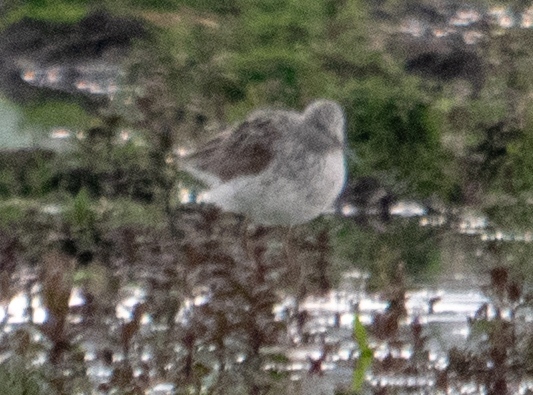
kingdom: Animalia
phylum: Chordata
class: Aves
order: Charadriiformes
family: Scolopacidae
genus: Tringa
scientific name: Tringa nebularia
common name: Common greenshank
